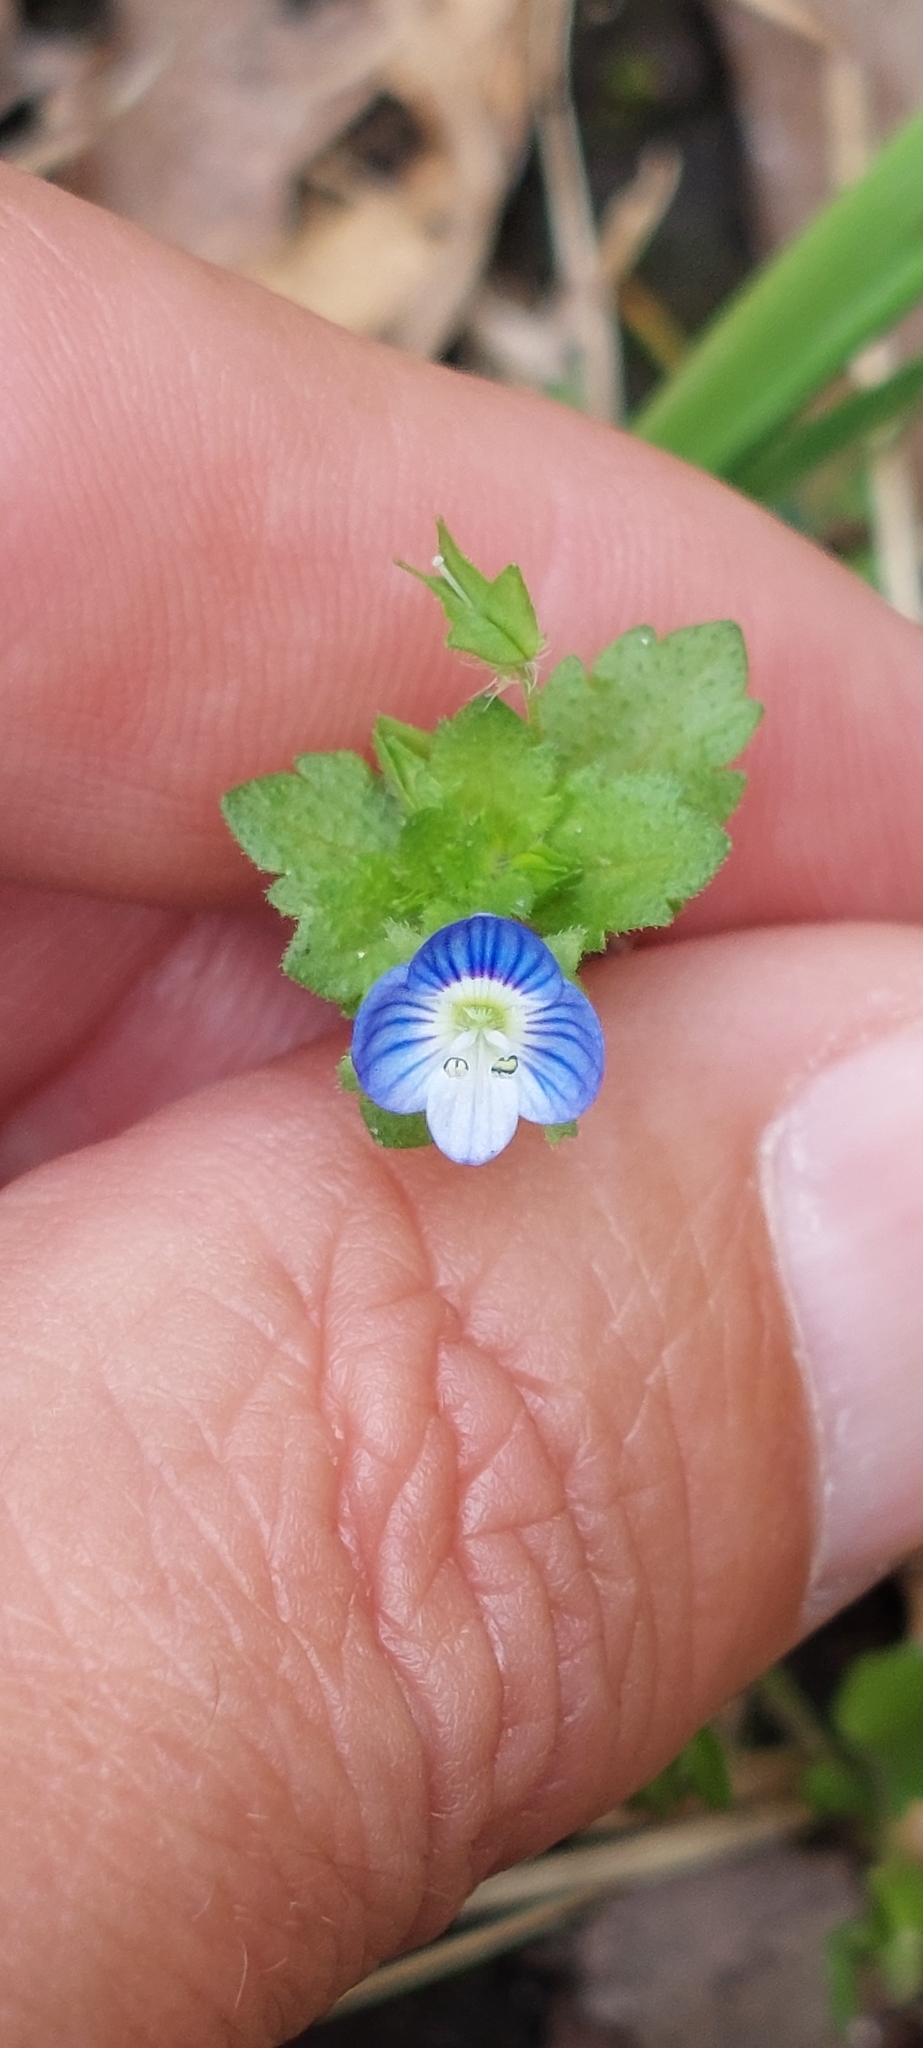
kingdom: Plantae
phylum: Tracheophyta
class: Magnoliopsida
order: Lamiales
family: Plantaginaceae
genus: Veronica
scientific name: Veronica persica
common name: Common field-speedwell
